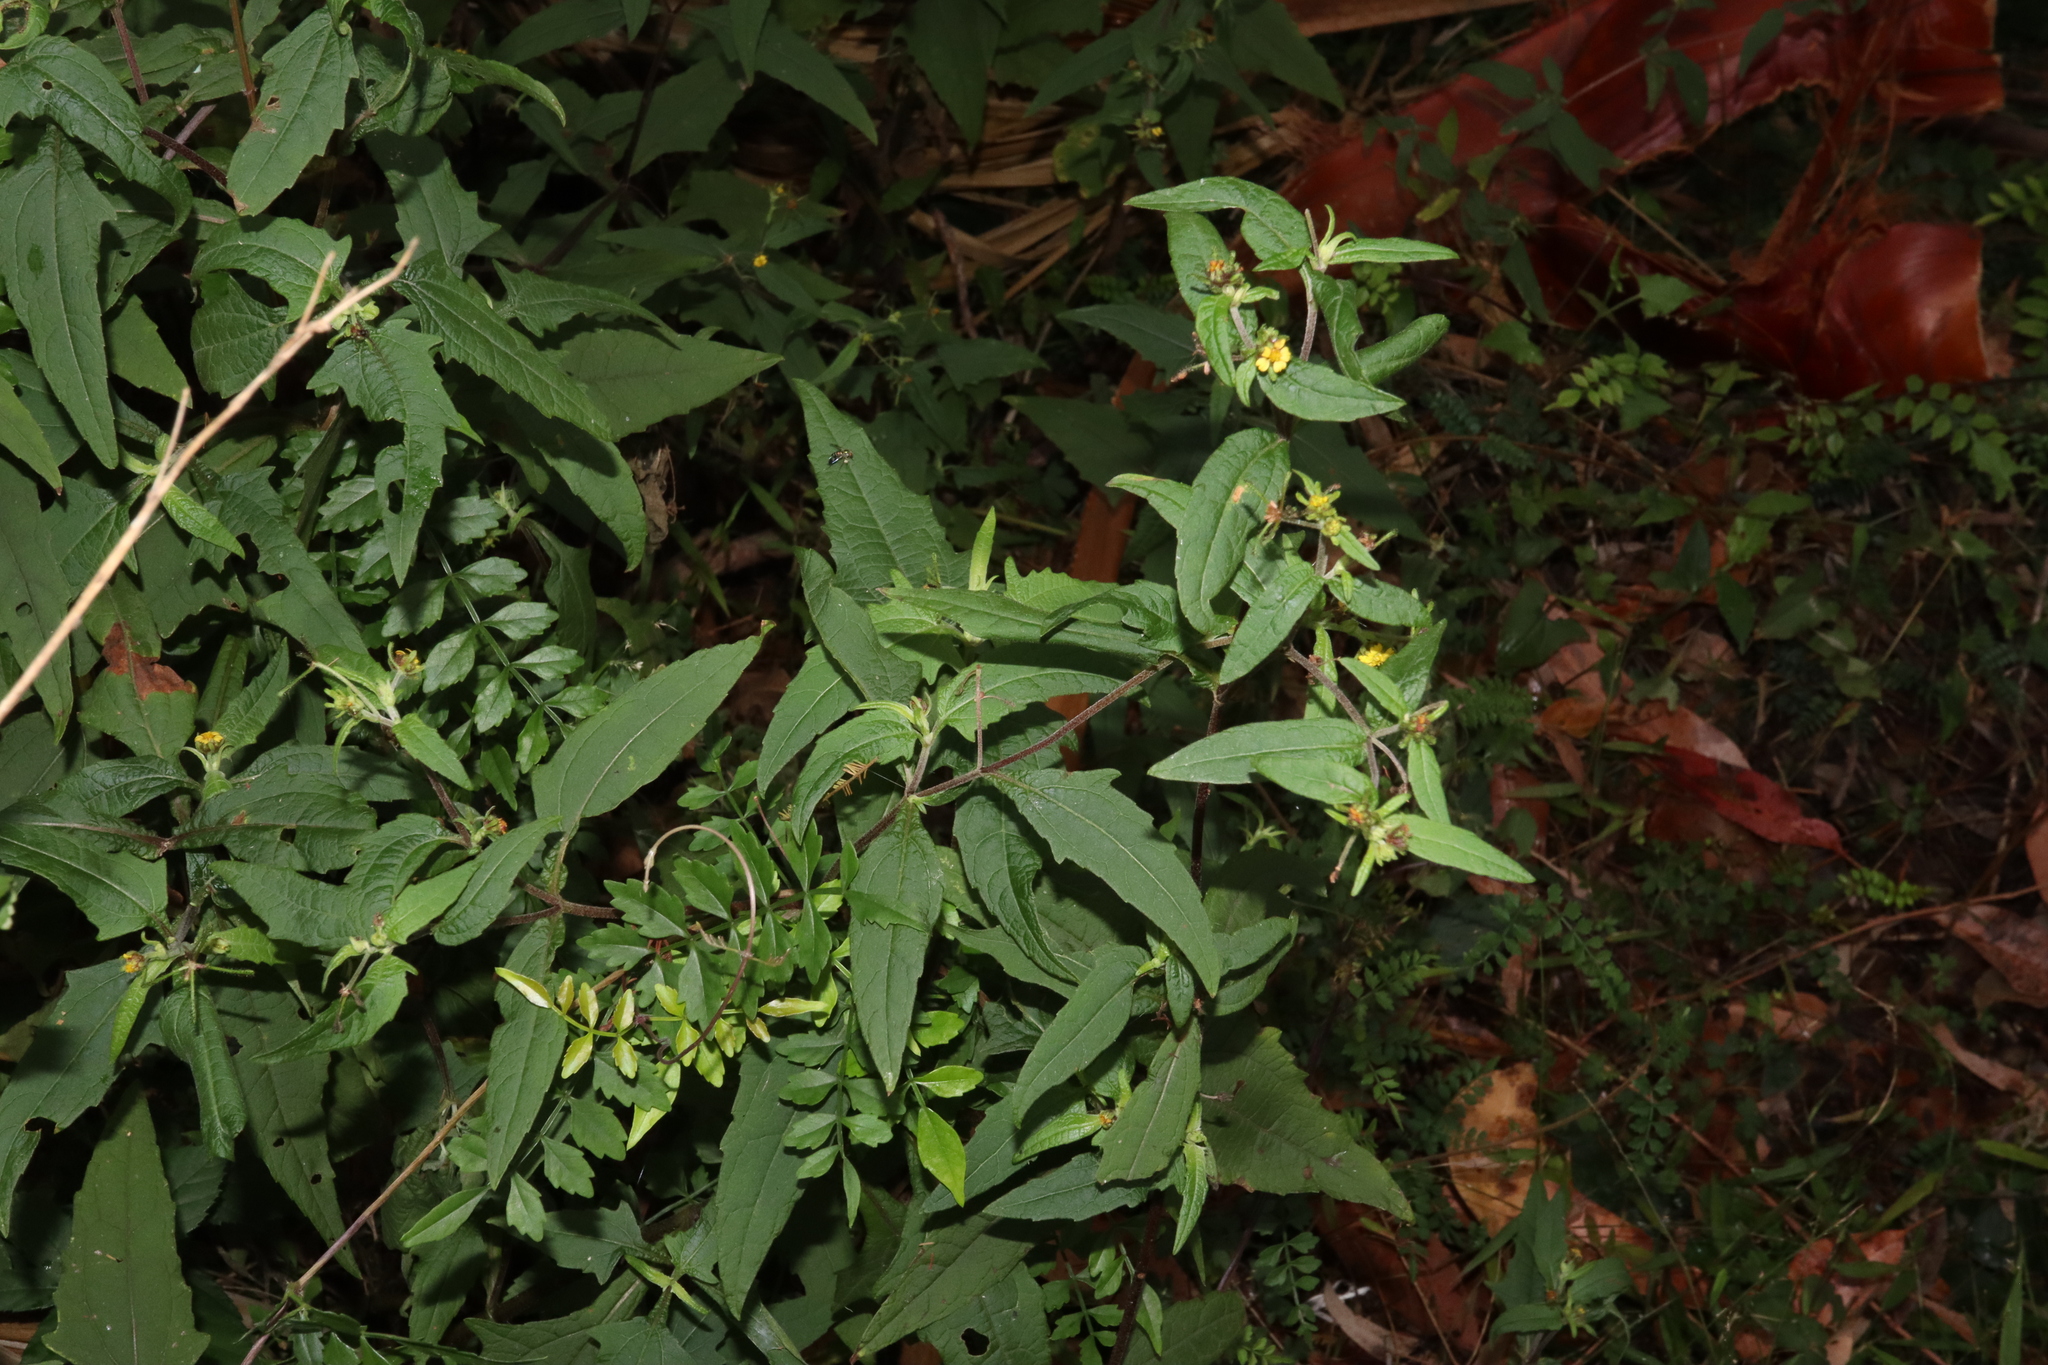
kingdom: Plantae
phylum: Tracheophyta
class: Magnoliopsida
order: Asterales
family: Asteraceae
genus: Sigesbeckia
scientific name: Sigesbeckia orientalis
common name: Eastern st paul's-wort
